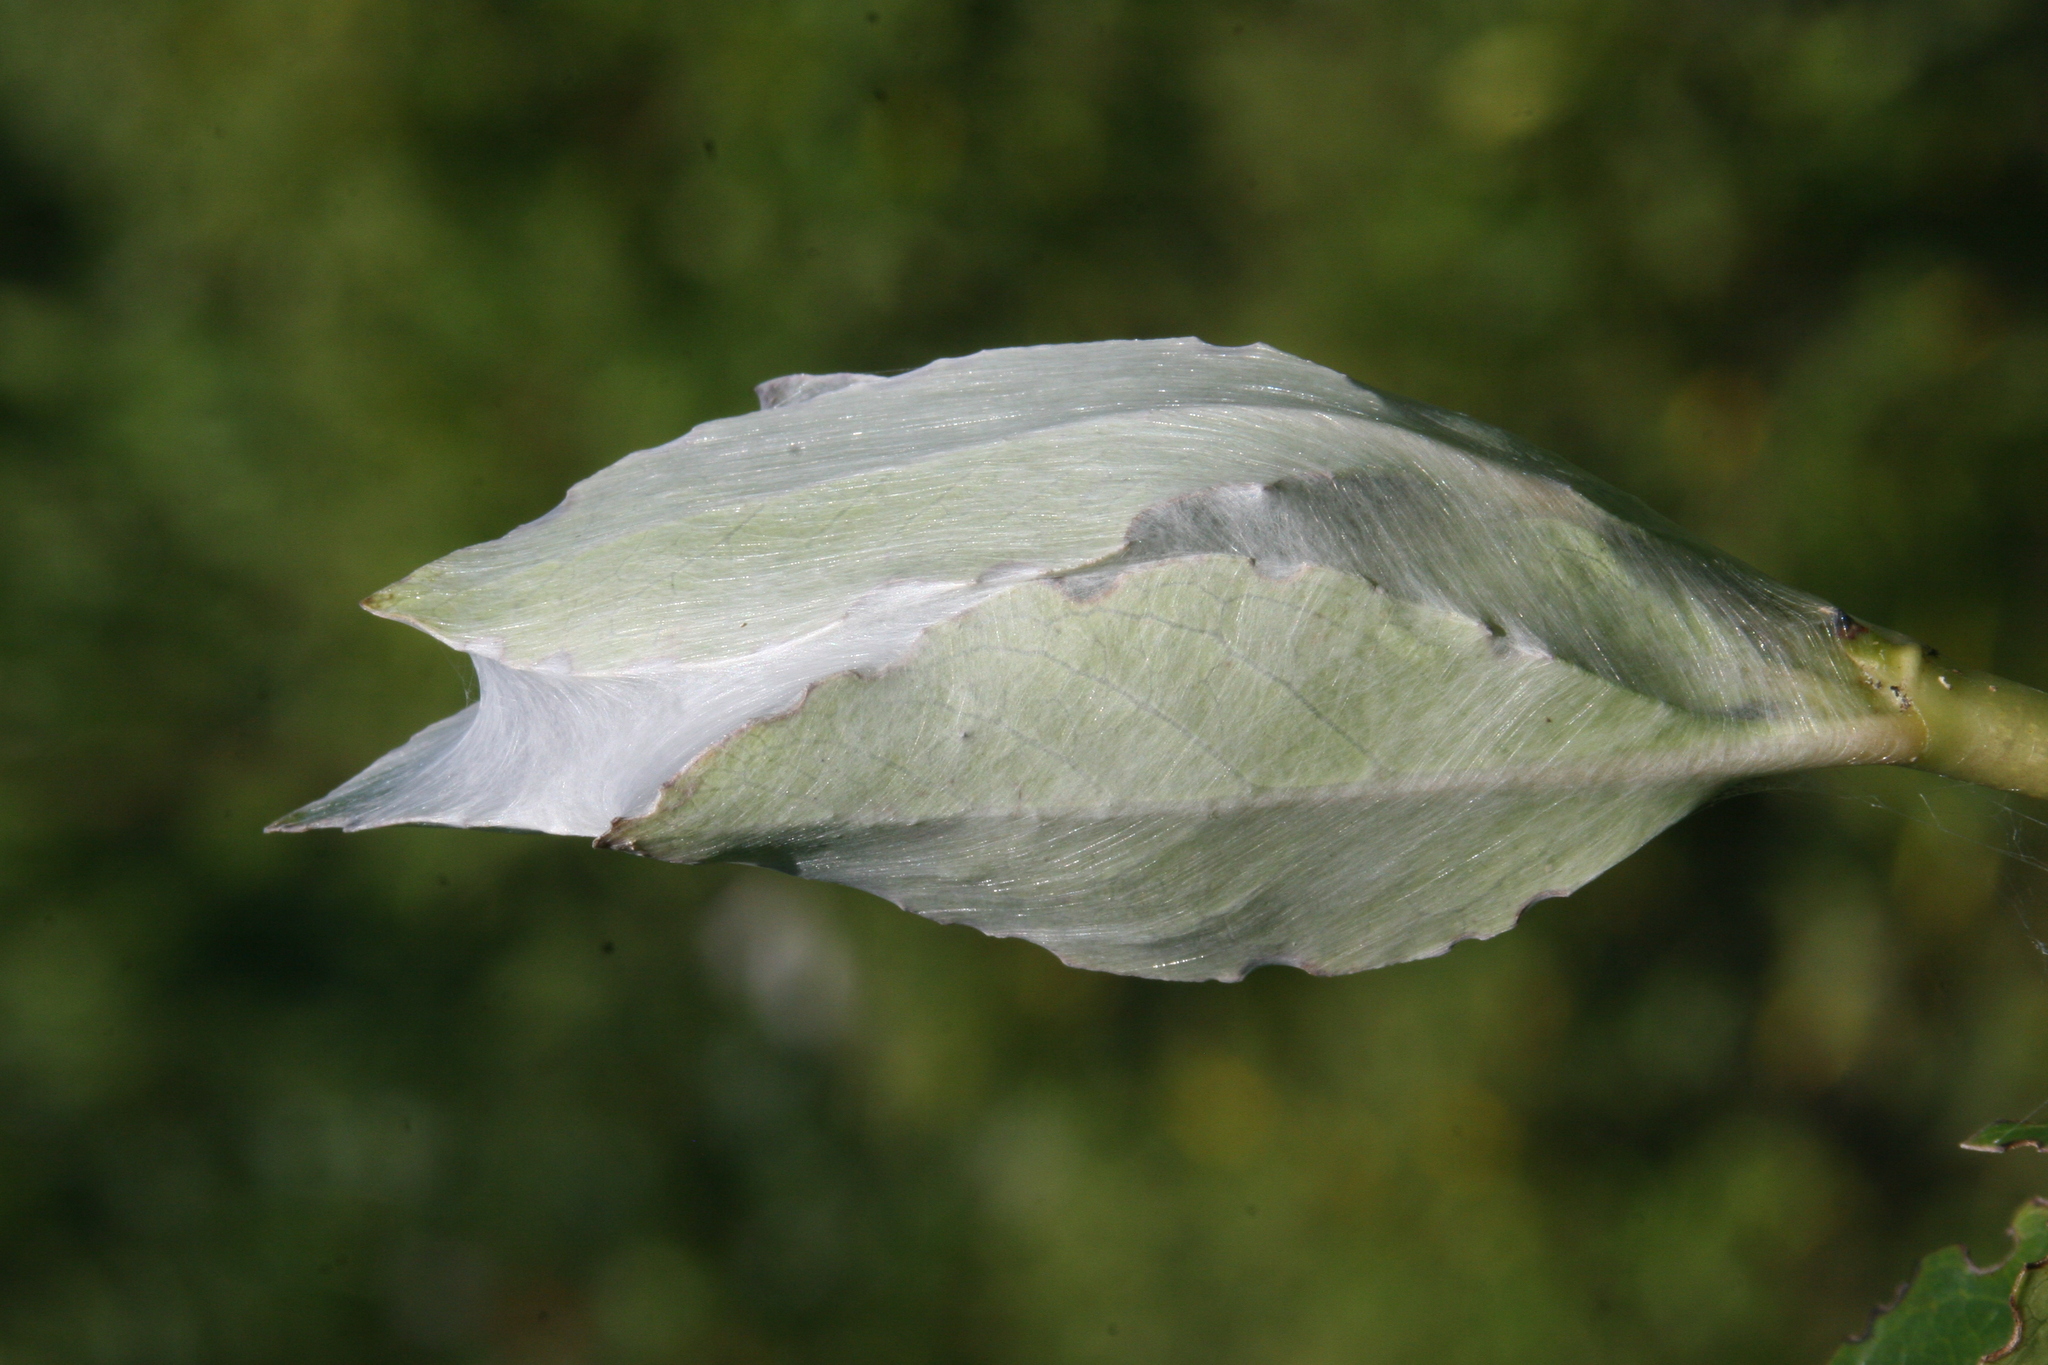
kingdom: Animalia
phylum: Arthropoda
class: Arachnida
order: Araneae
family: Pisauridae
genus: Dolomedes
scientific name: Dolomedes minor
